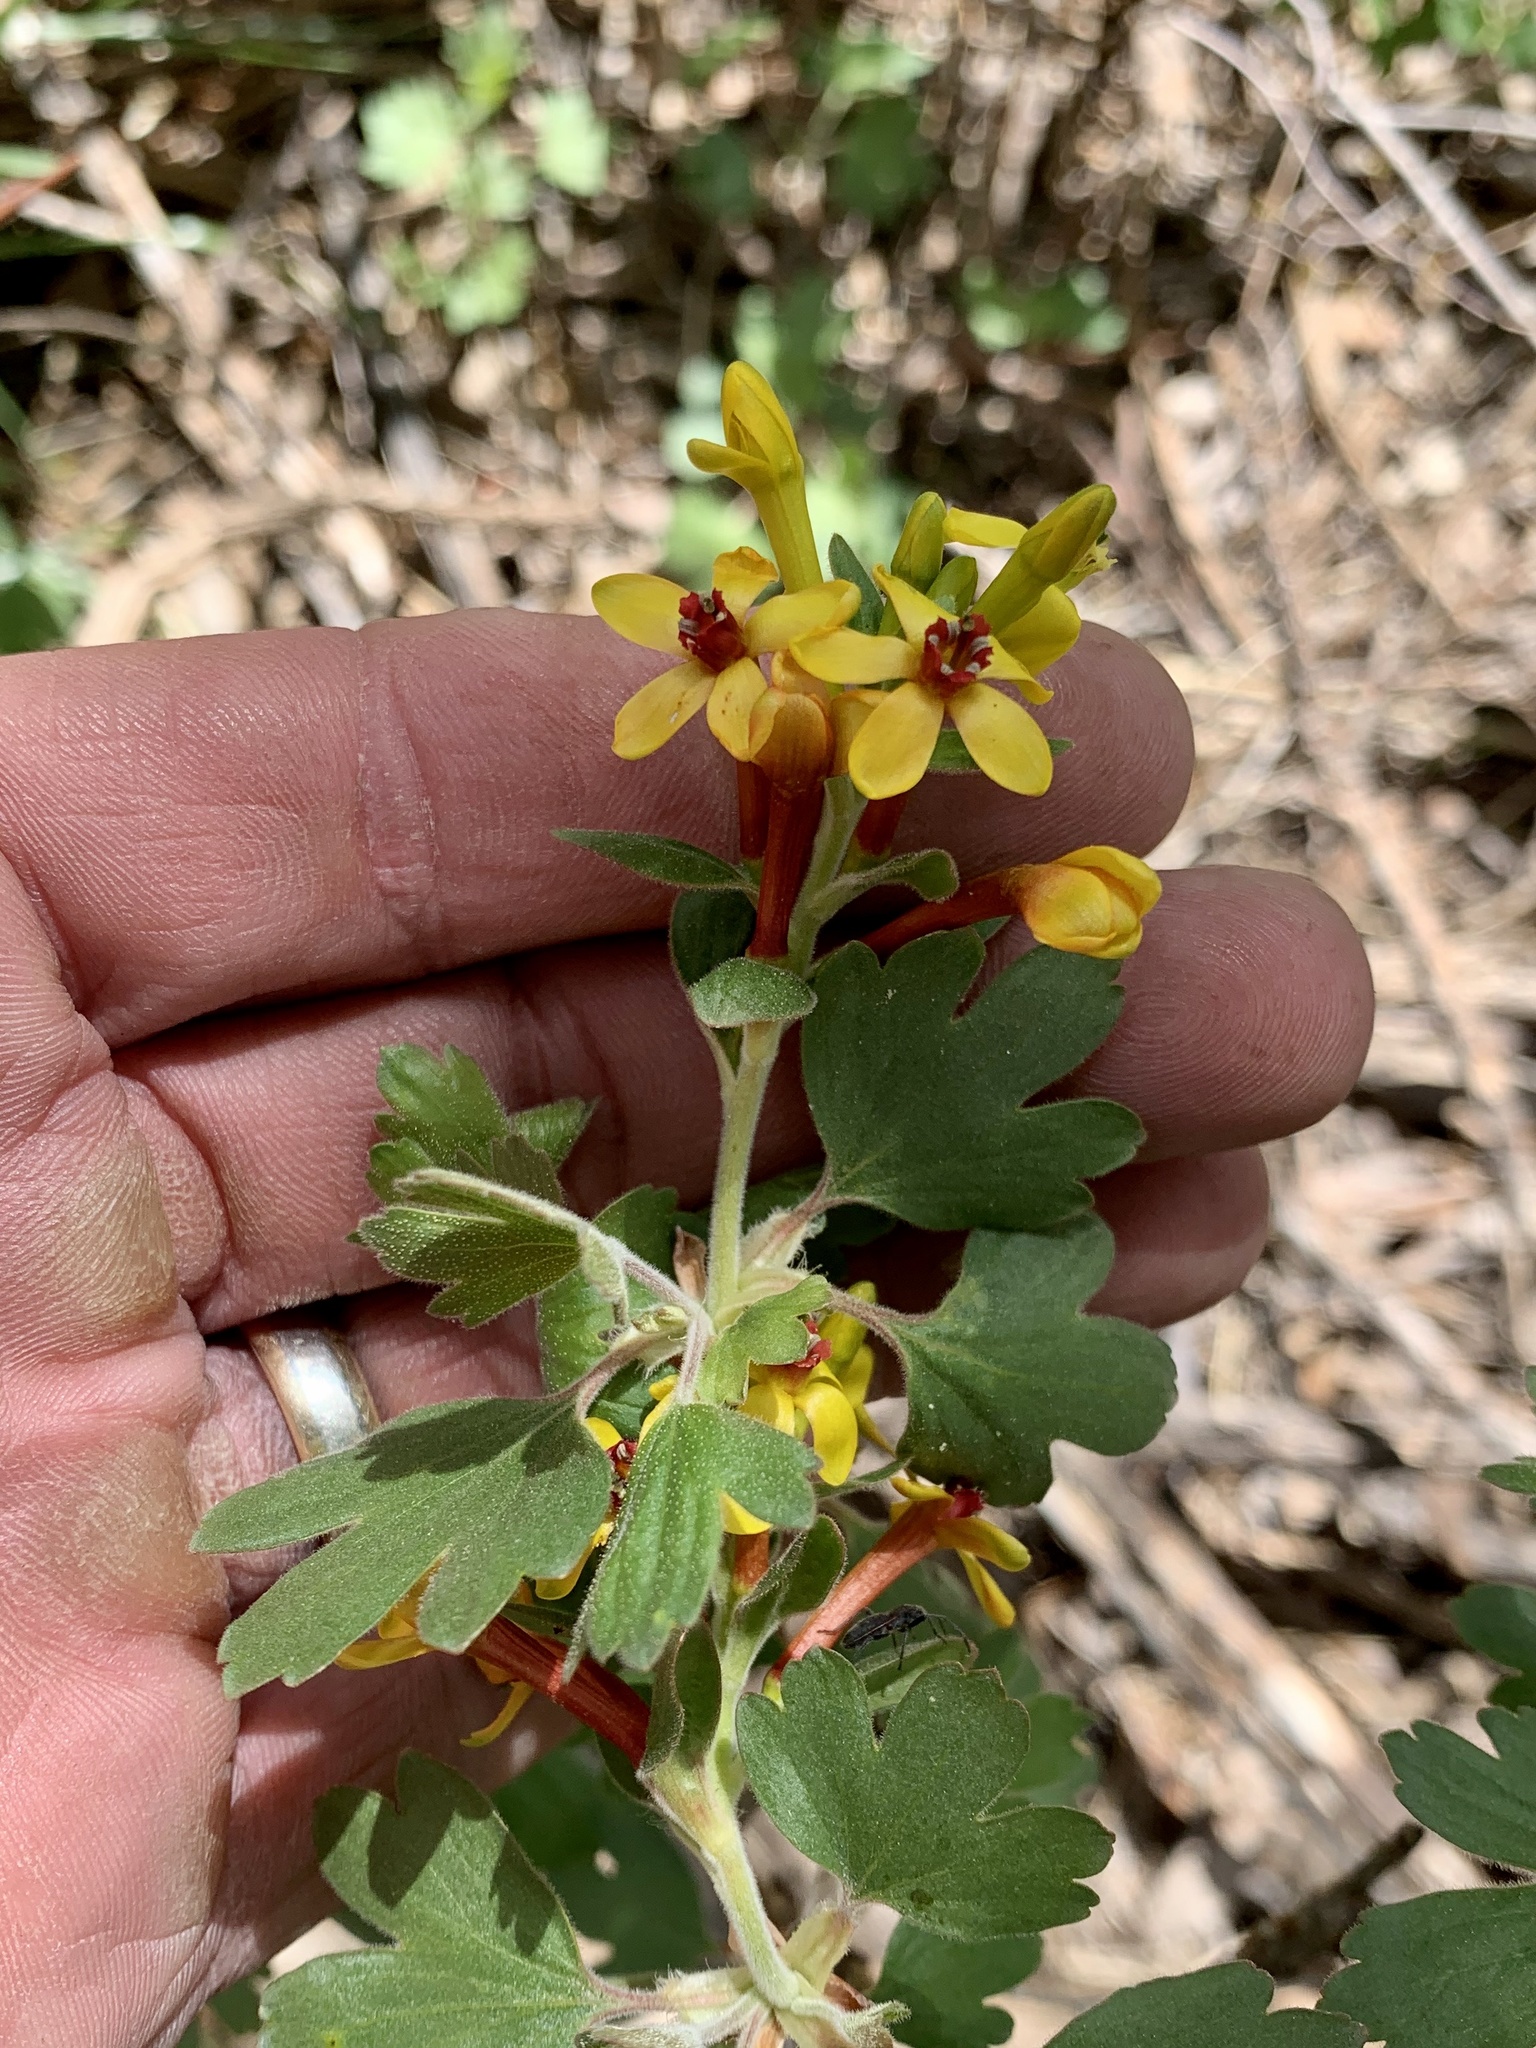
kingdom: Plantae
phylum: Tracheophyta
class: Magnoliopsida
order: Saxifragales
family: Grossulariaceae
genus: Ribes
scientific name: Ribes aureum
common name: Golden currant
